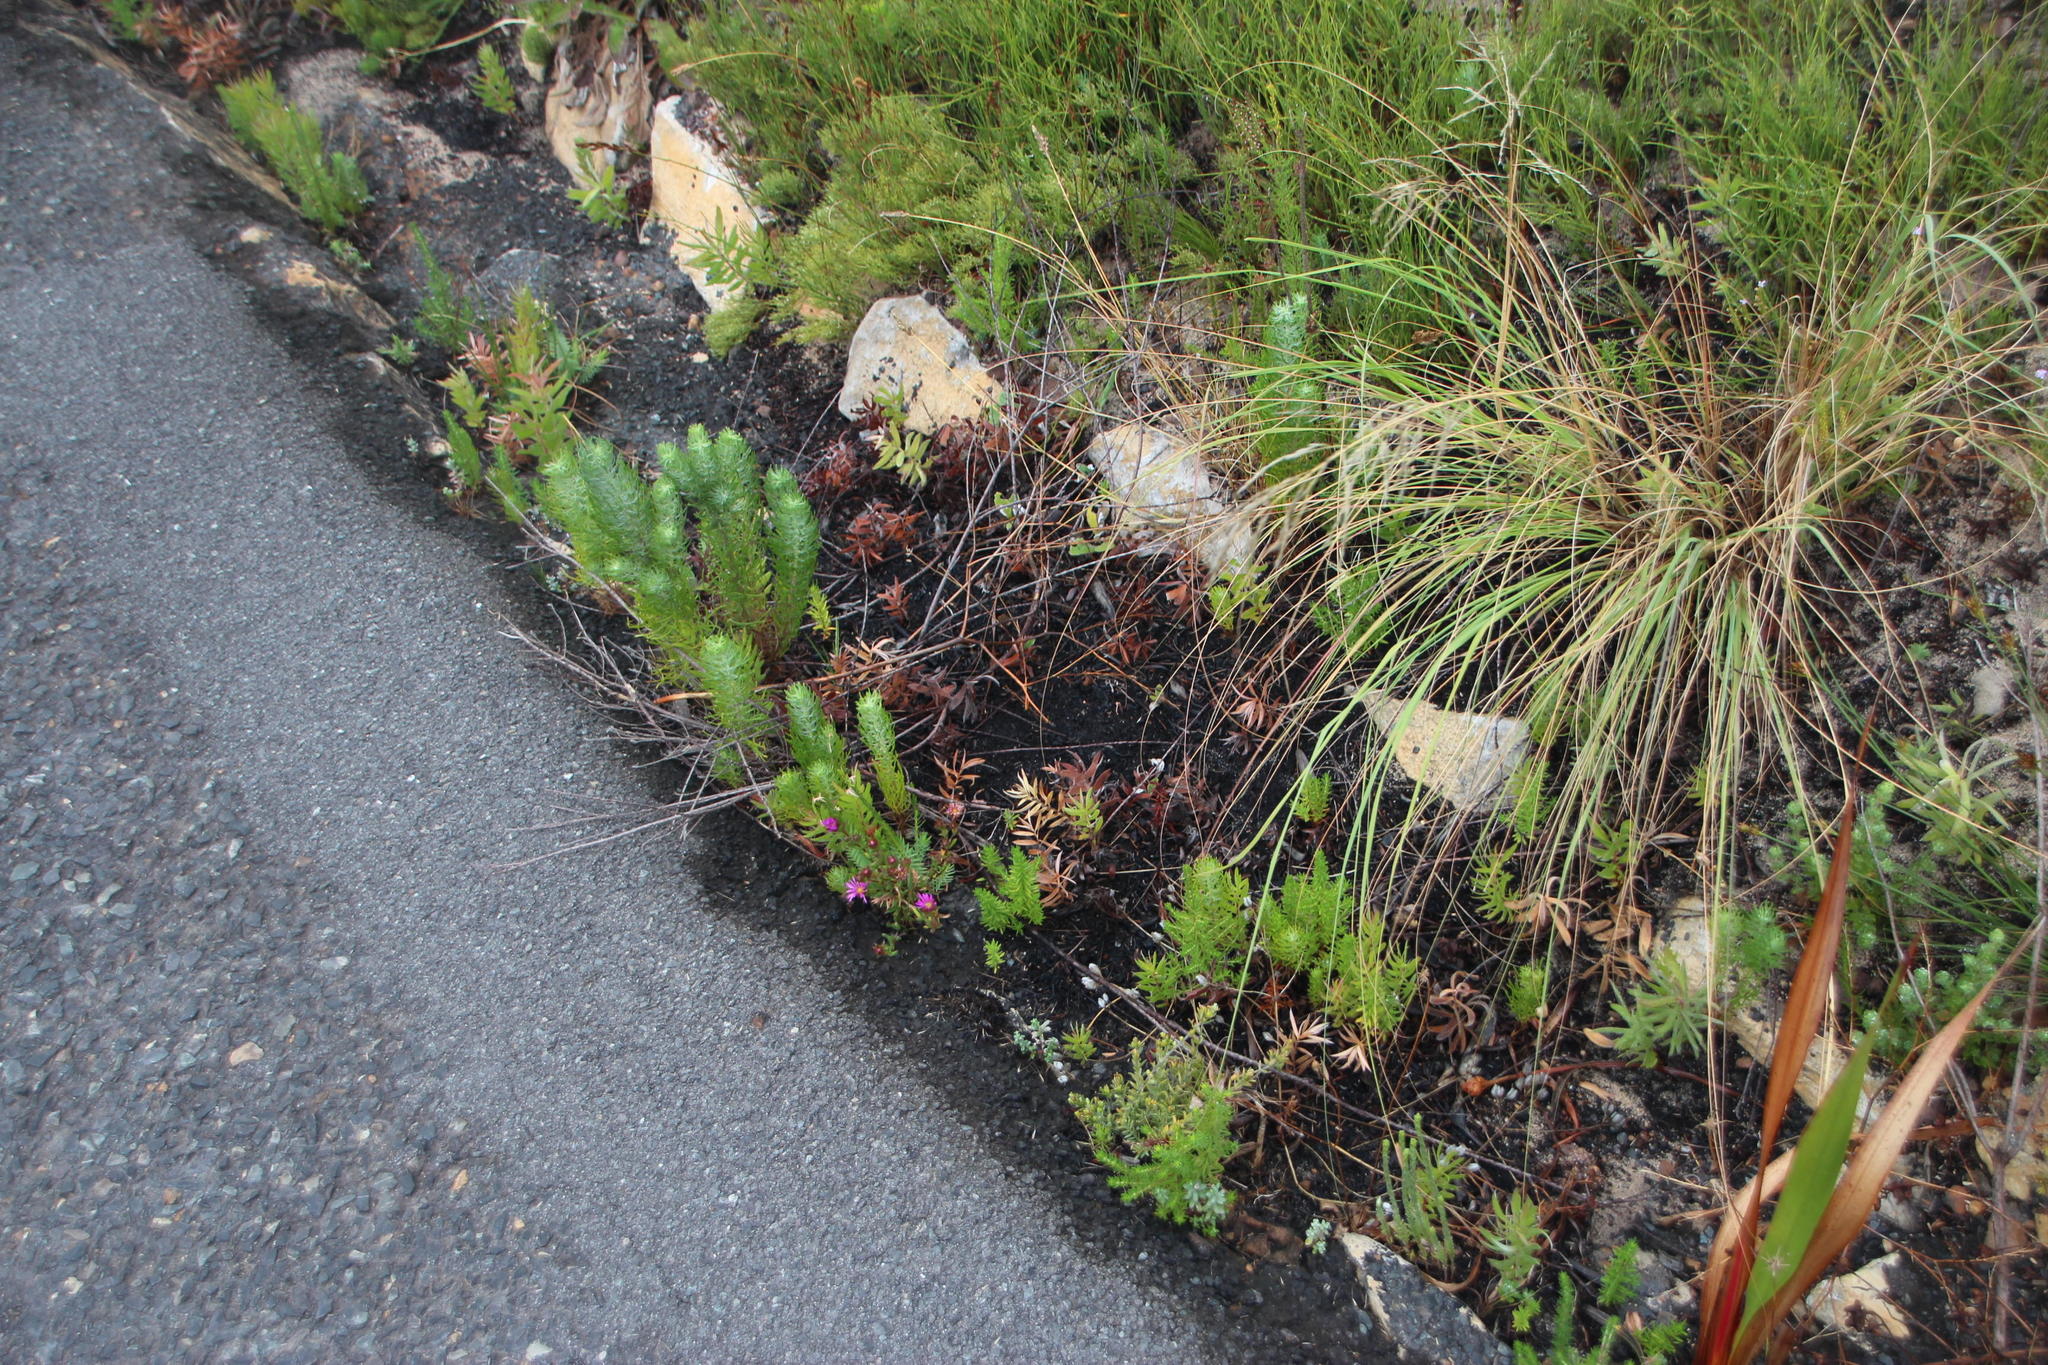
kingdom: Plantae
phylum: Tracheophyta
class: Magnoliopsida
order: Proteales
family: Proteaceae
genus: Protea
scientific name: Protea coronata
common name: Green sugarbush
